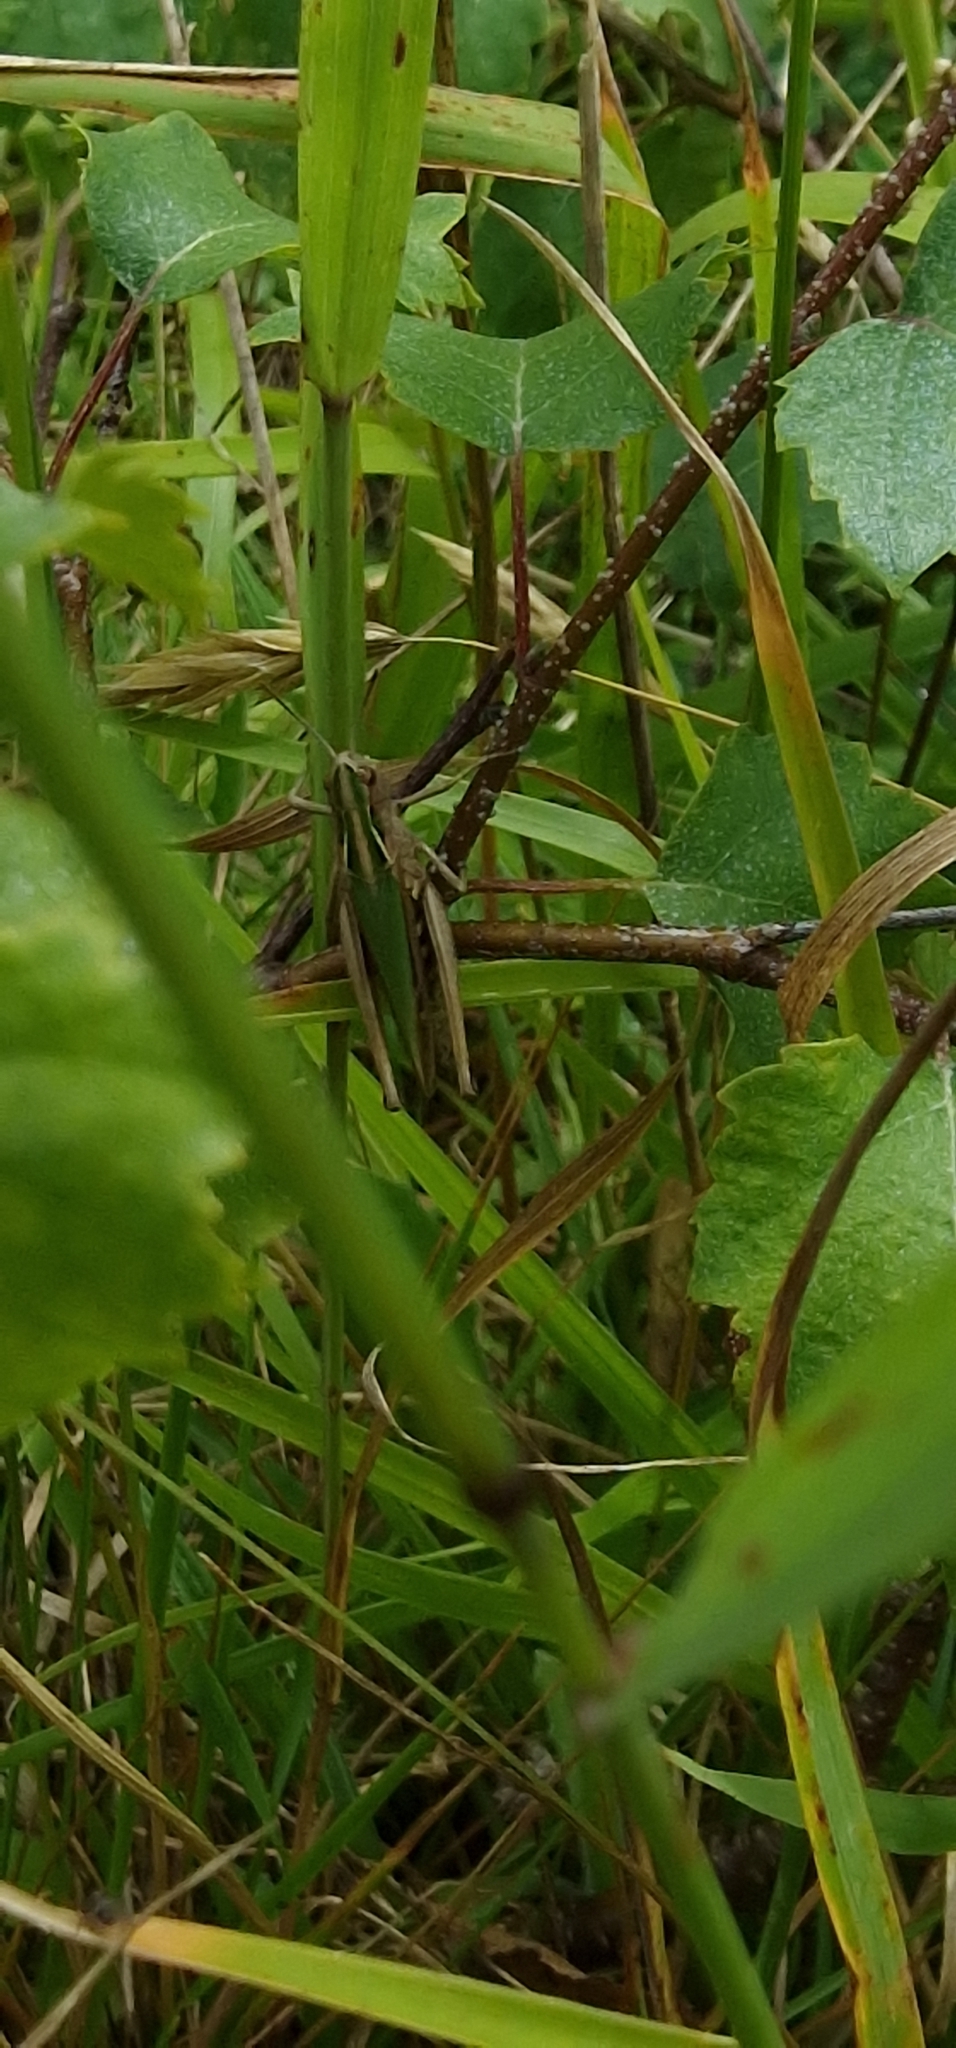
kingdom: Animalia
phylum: Arthropoda
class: Insecta
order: Orthoptera
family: Acrididae
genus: Omocestus
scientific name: Omocestus viridulus
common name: Common green grasshopper
